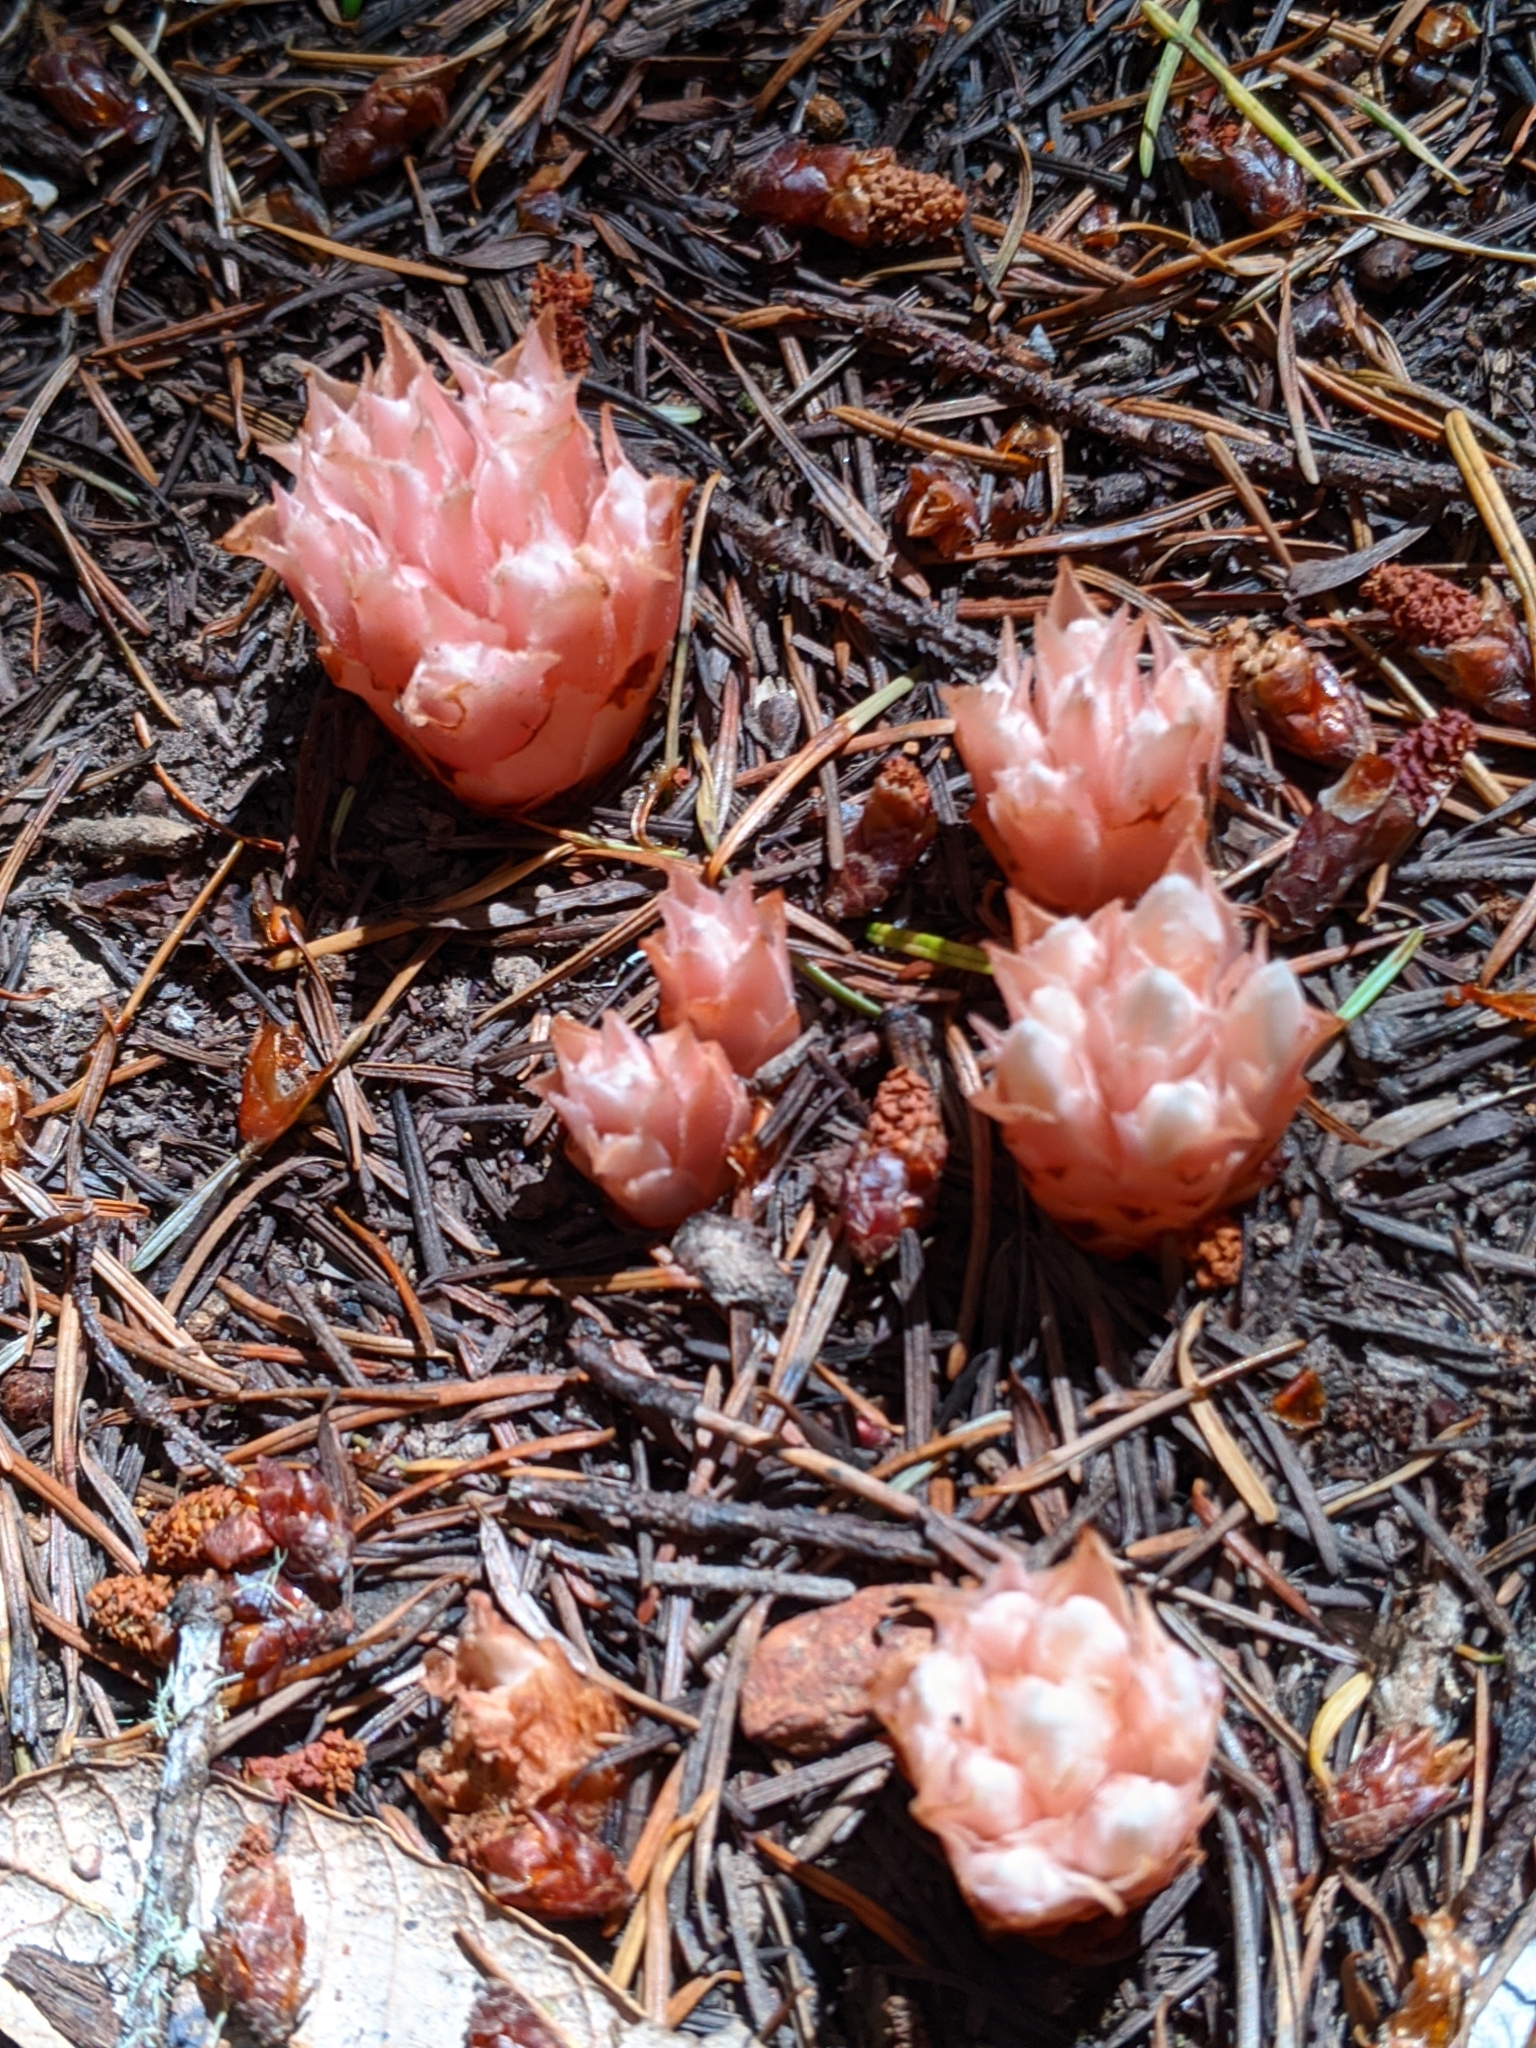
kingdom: Plantae
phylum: Tracheophyta
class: Magnoliopsida
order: Ericales
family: Ericaceae
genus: Hemitomes
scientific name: Hemitomes congestum
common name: Cone plant
